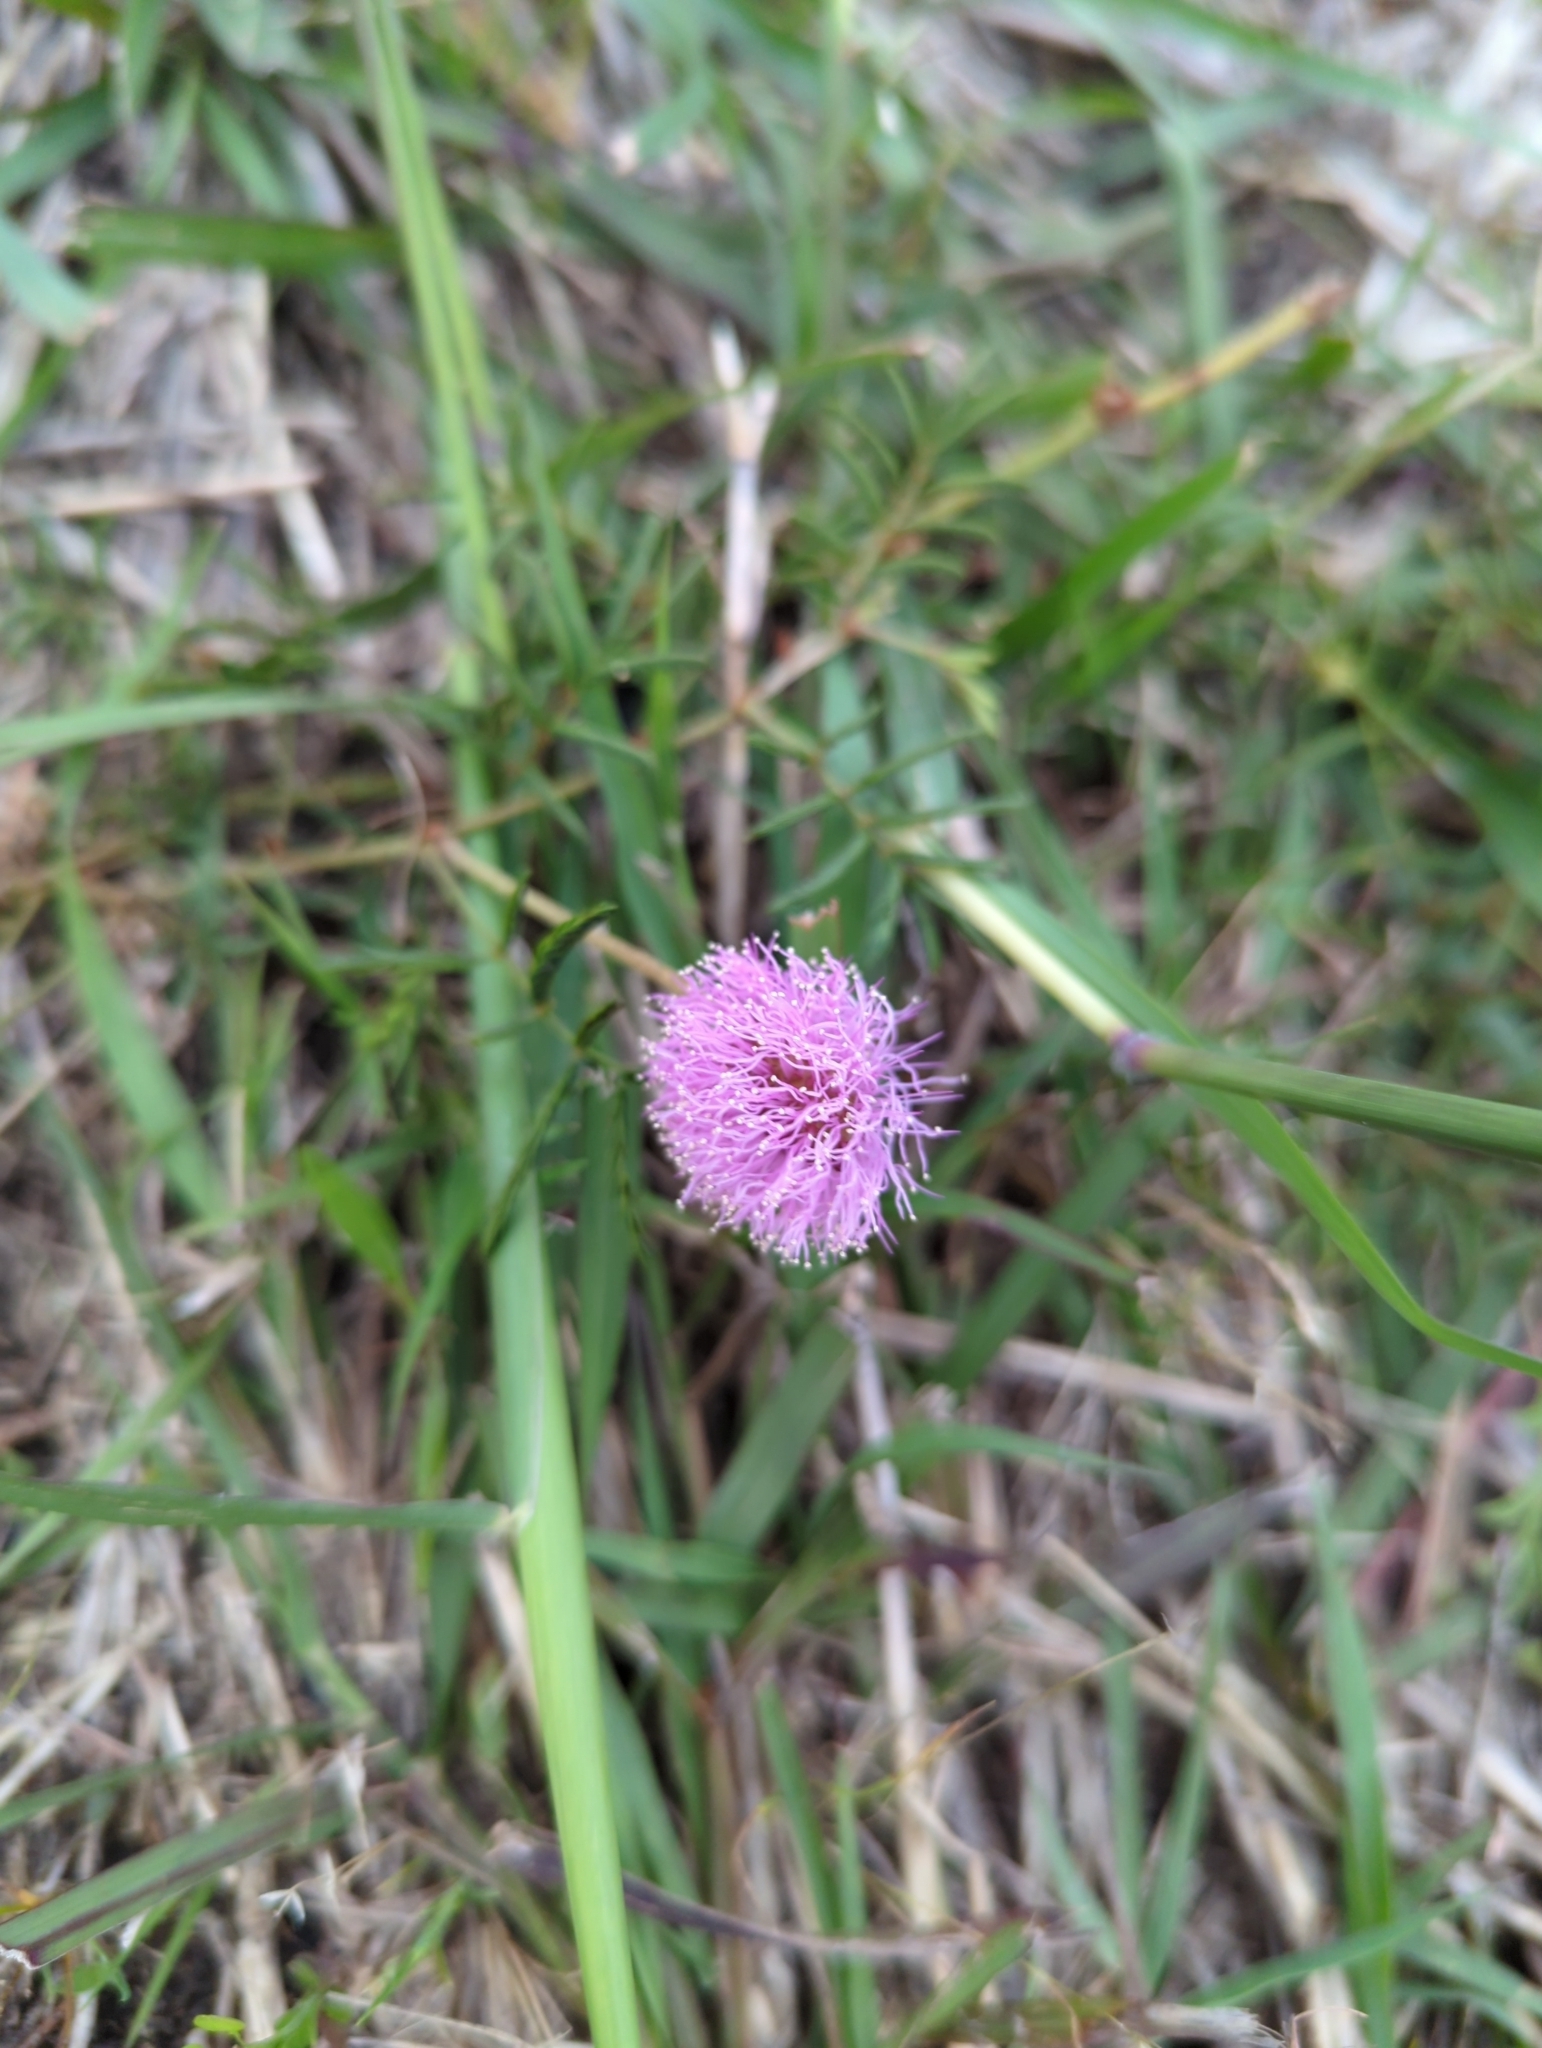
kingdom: Plantae
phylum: Tracheophyta
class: Magnoliopsida
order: Fabales
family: Fabaceae
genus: Mimosa
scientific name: Mimosa strigillosa
